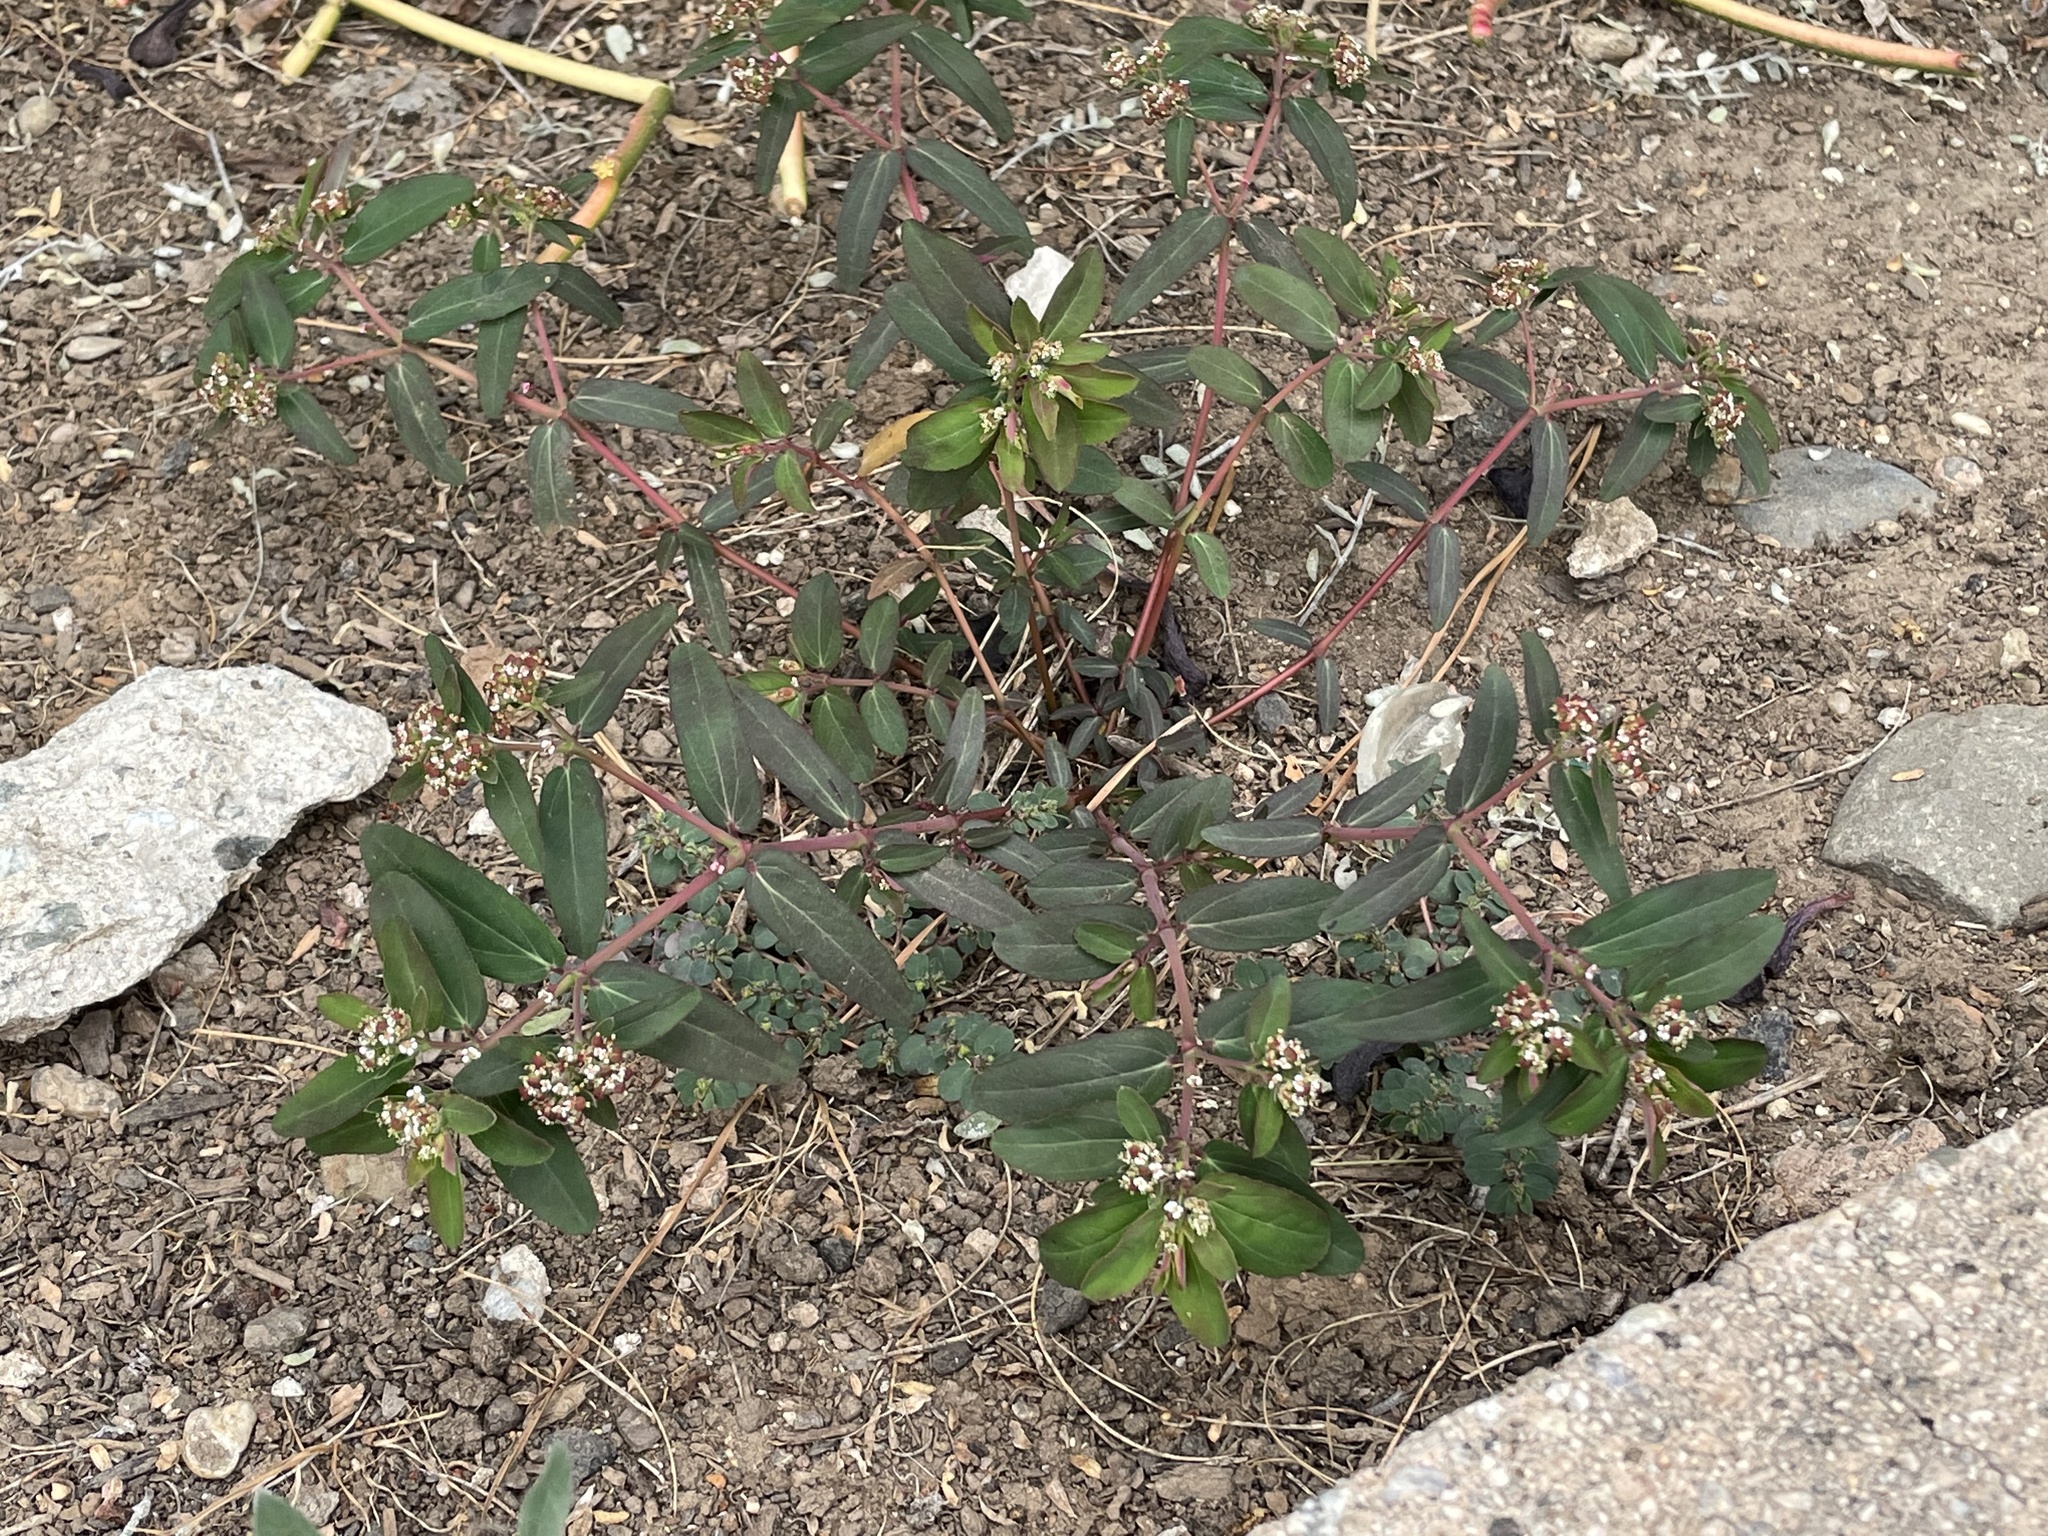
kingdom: Plantae
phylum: Tracheophyta
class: Magnoliopsida
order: Malpighiales
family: Euphorbiaceae
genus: Euphorbia
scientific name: Euphorbia hypericifolia
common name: Graceful sandmat
